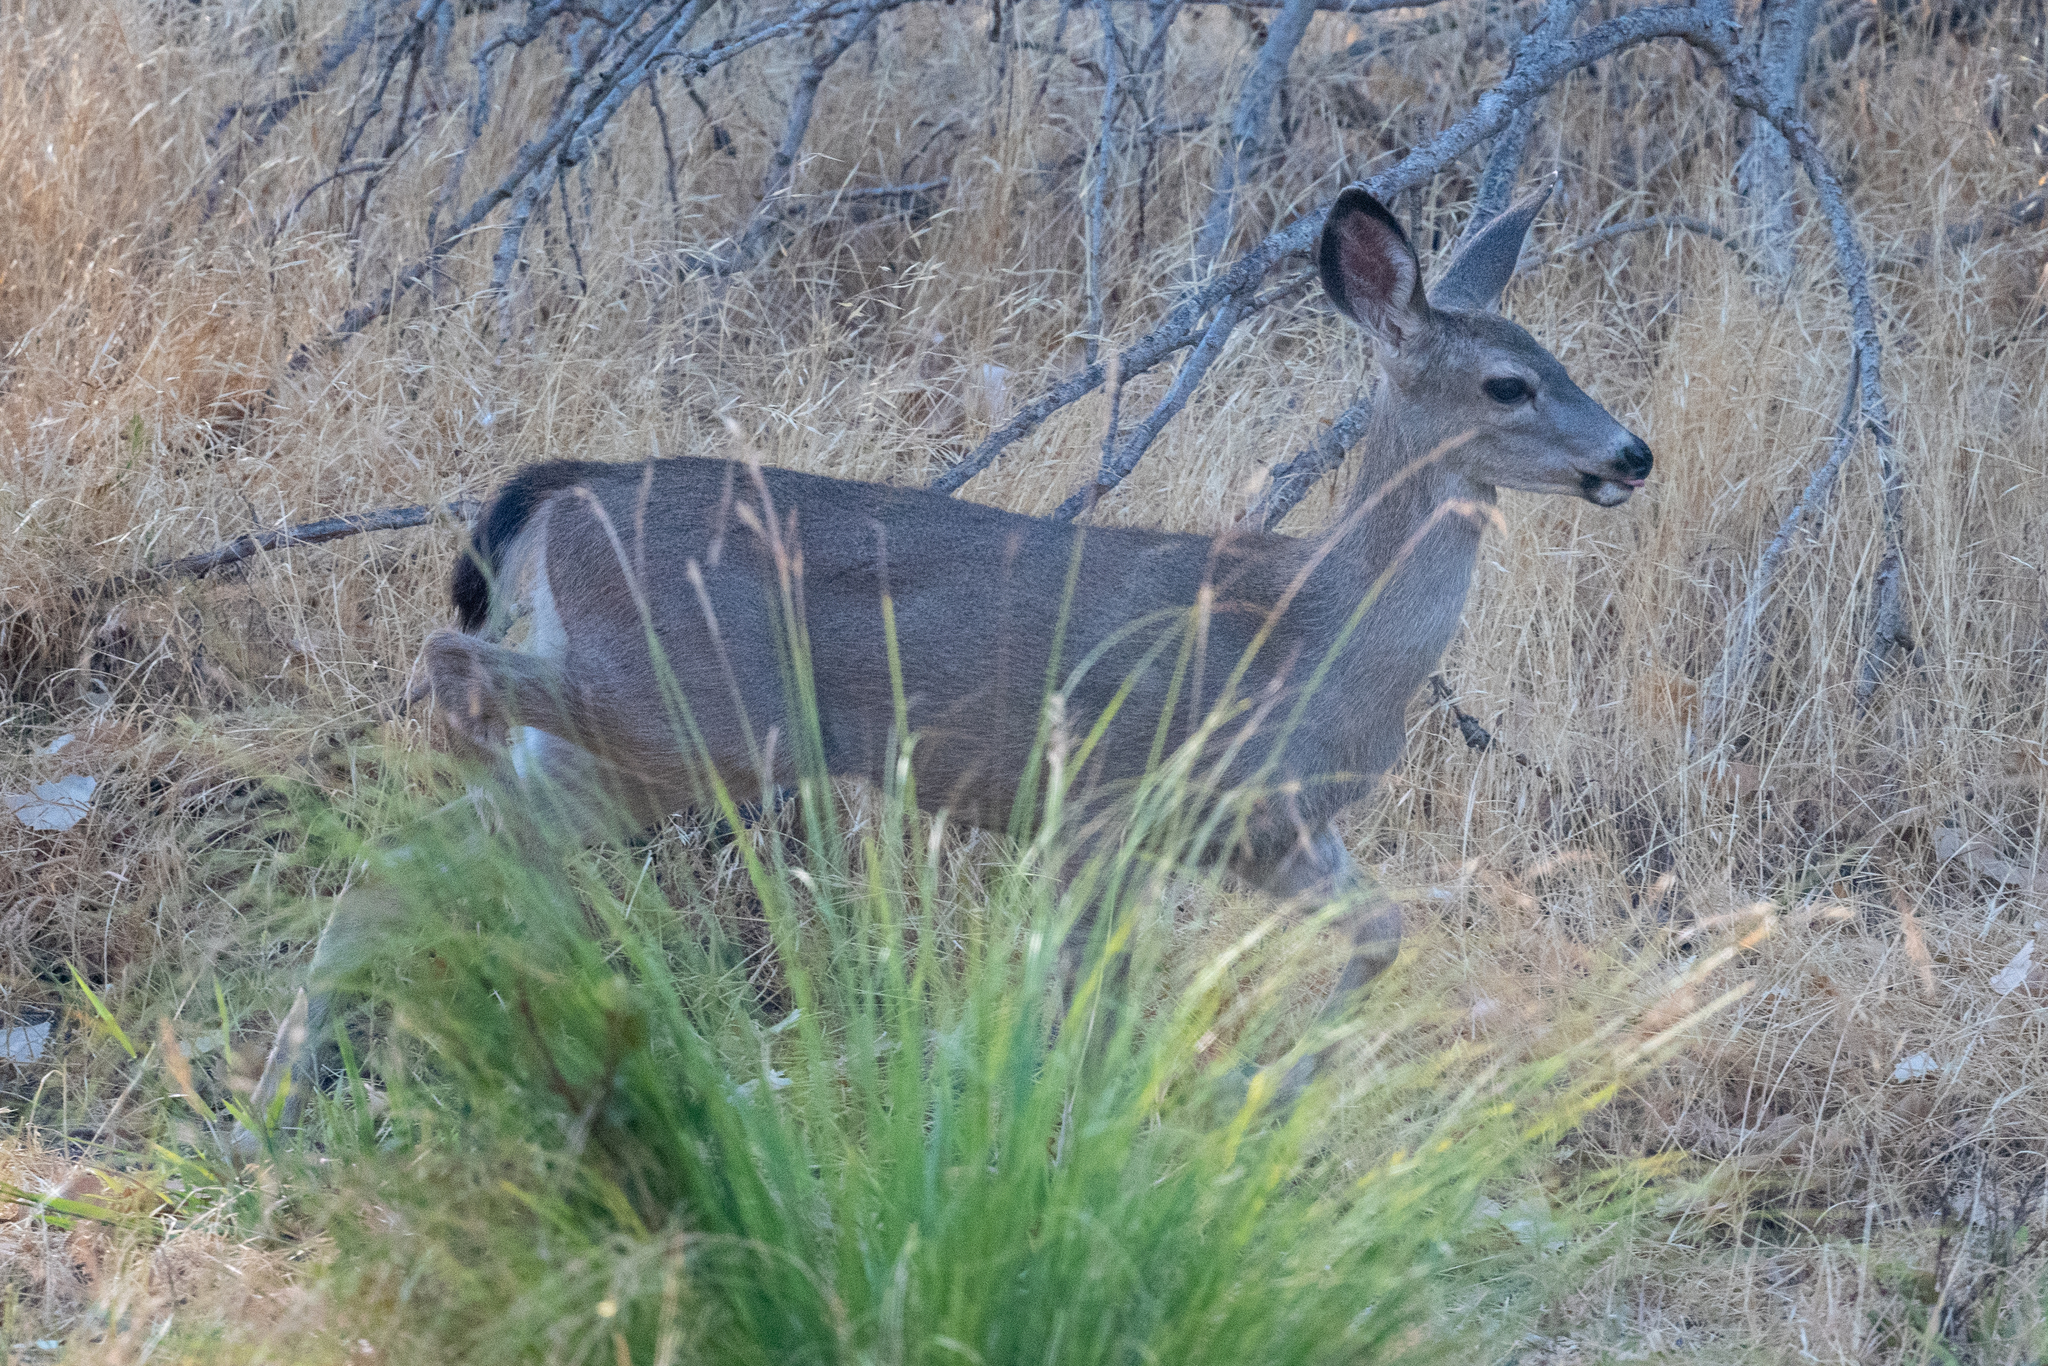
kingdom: Animalia
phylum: Chordata
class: Mammalia
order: Artiodactyla
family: Cervidae
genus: Odocoileus
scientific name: Odocoileus hemionus
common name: Mule deer
